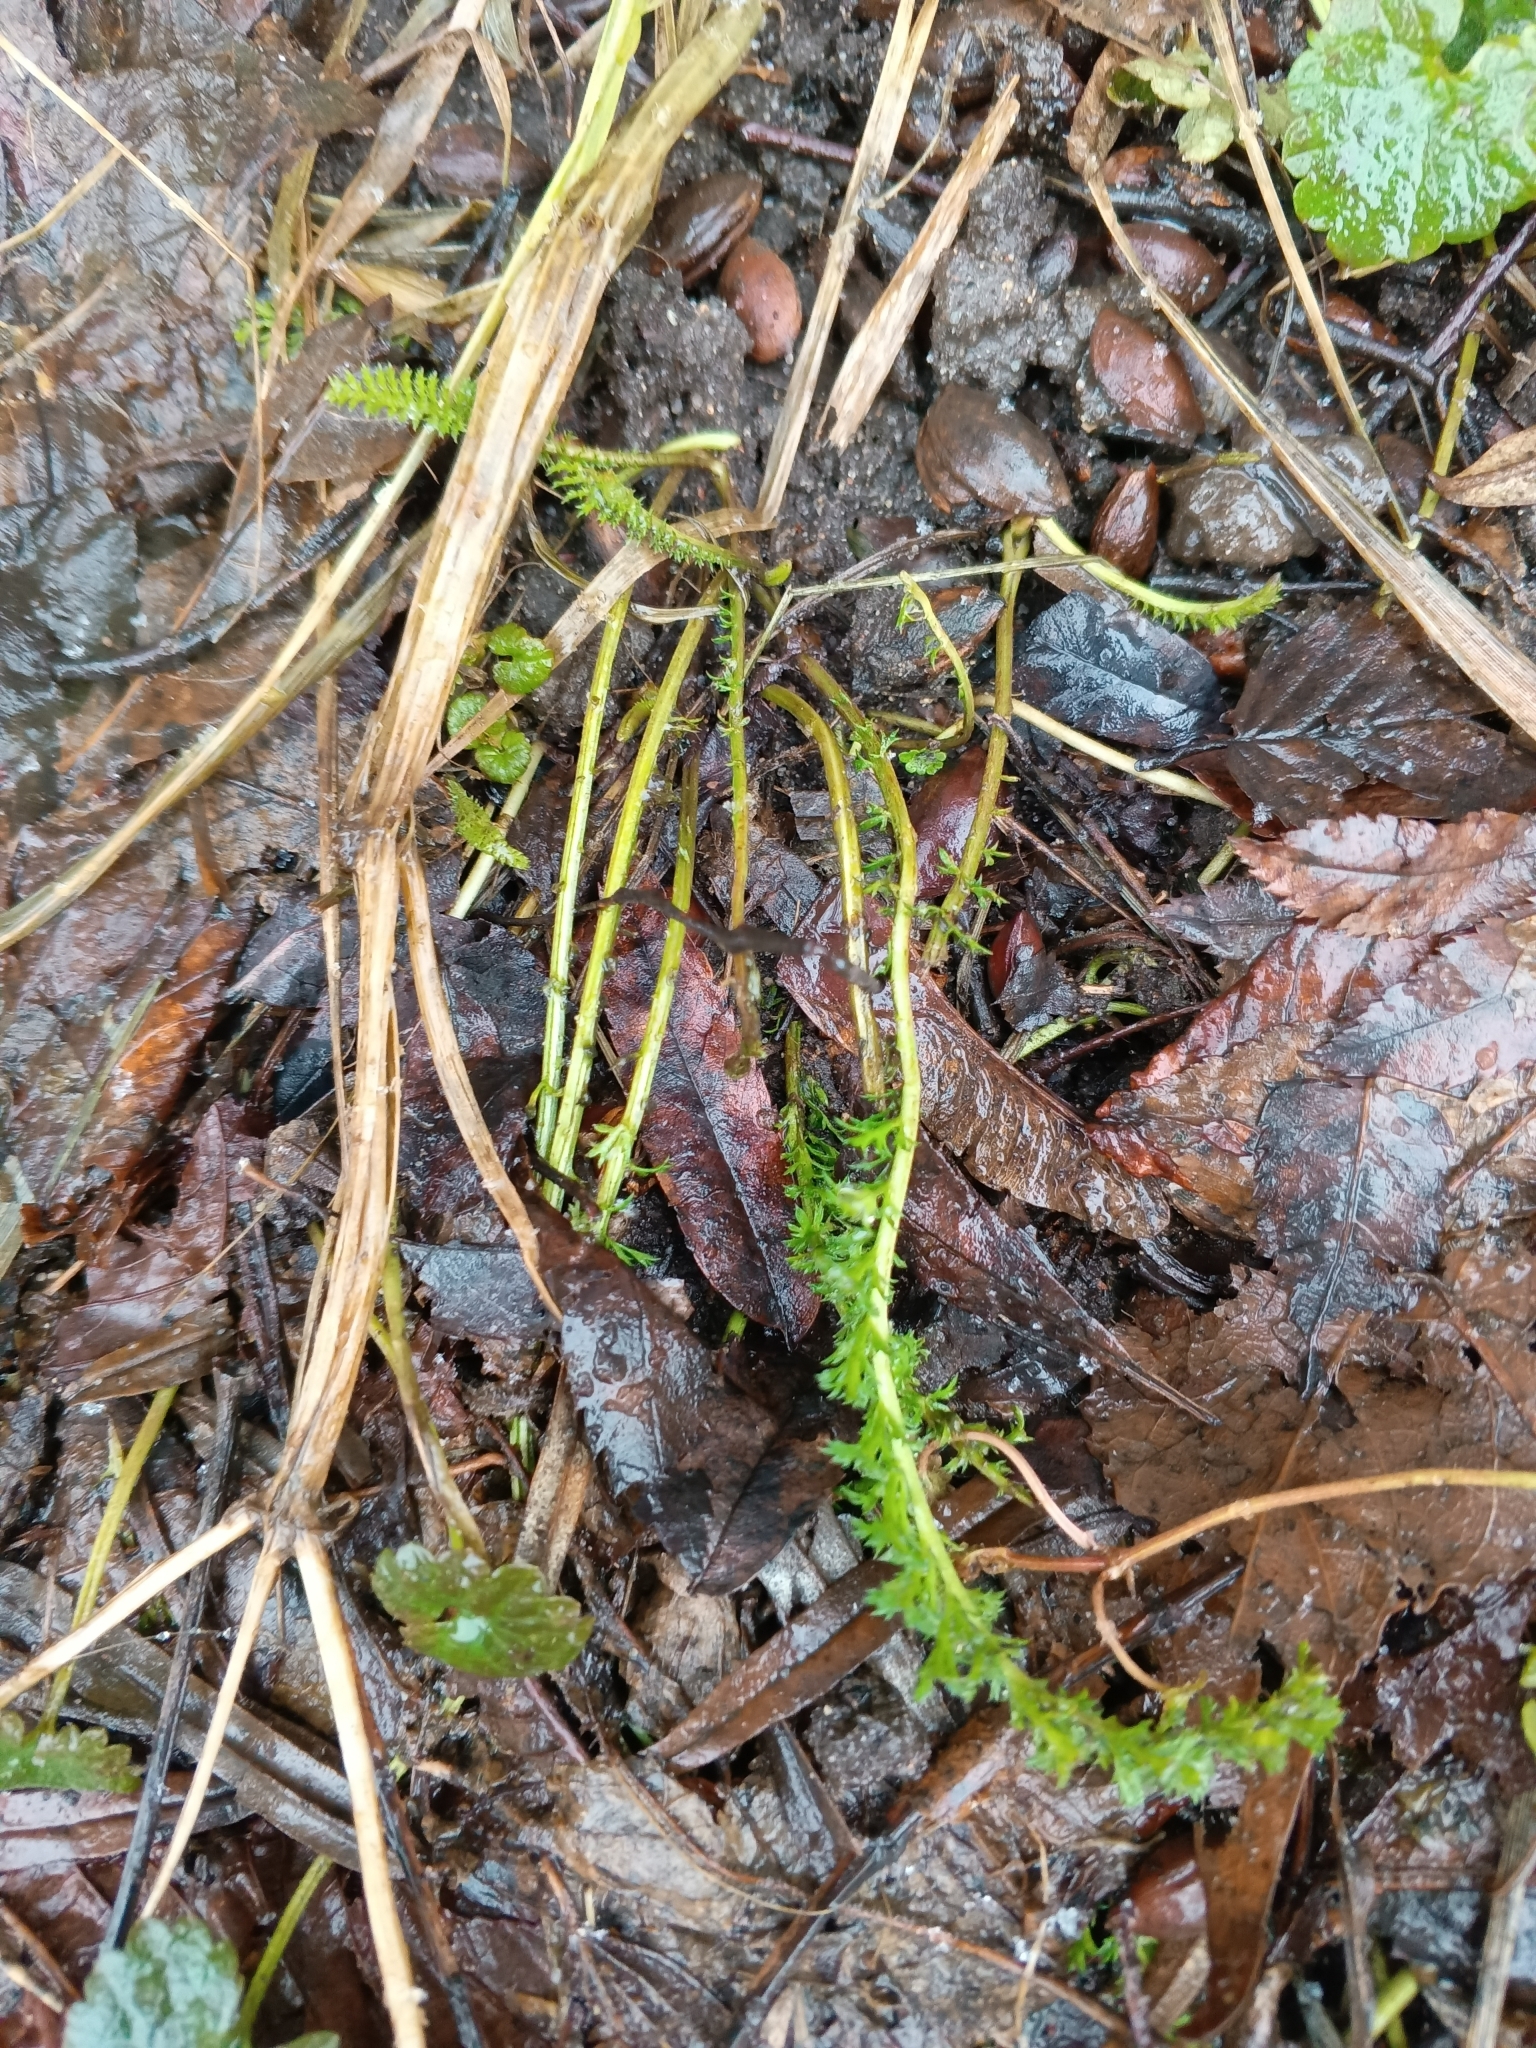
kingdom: Plantae
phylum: Tracheophyta
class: Magnoliopsida
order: Asterales
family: Asteraceae
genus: Achillea
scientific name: Achillea millefolium
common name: Yarrow
